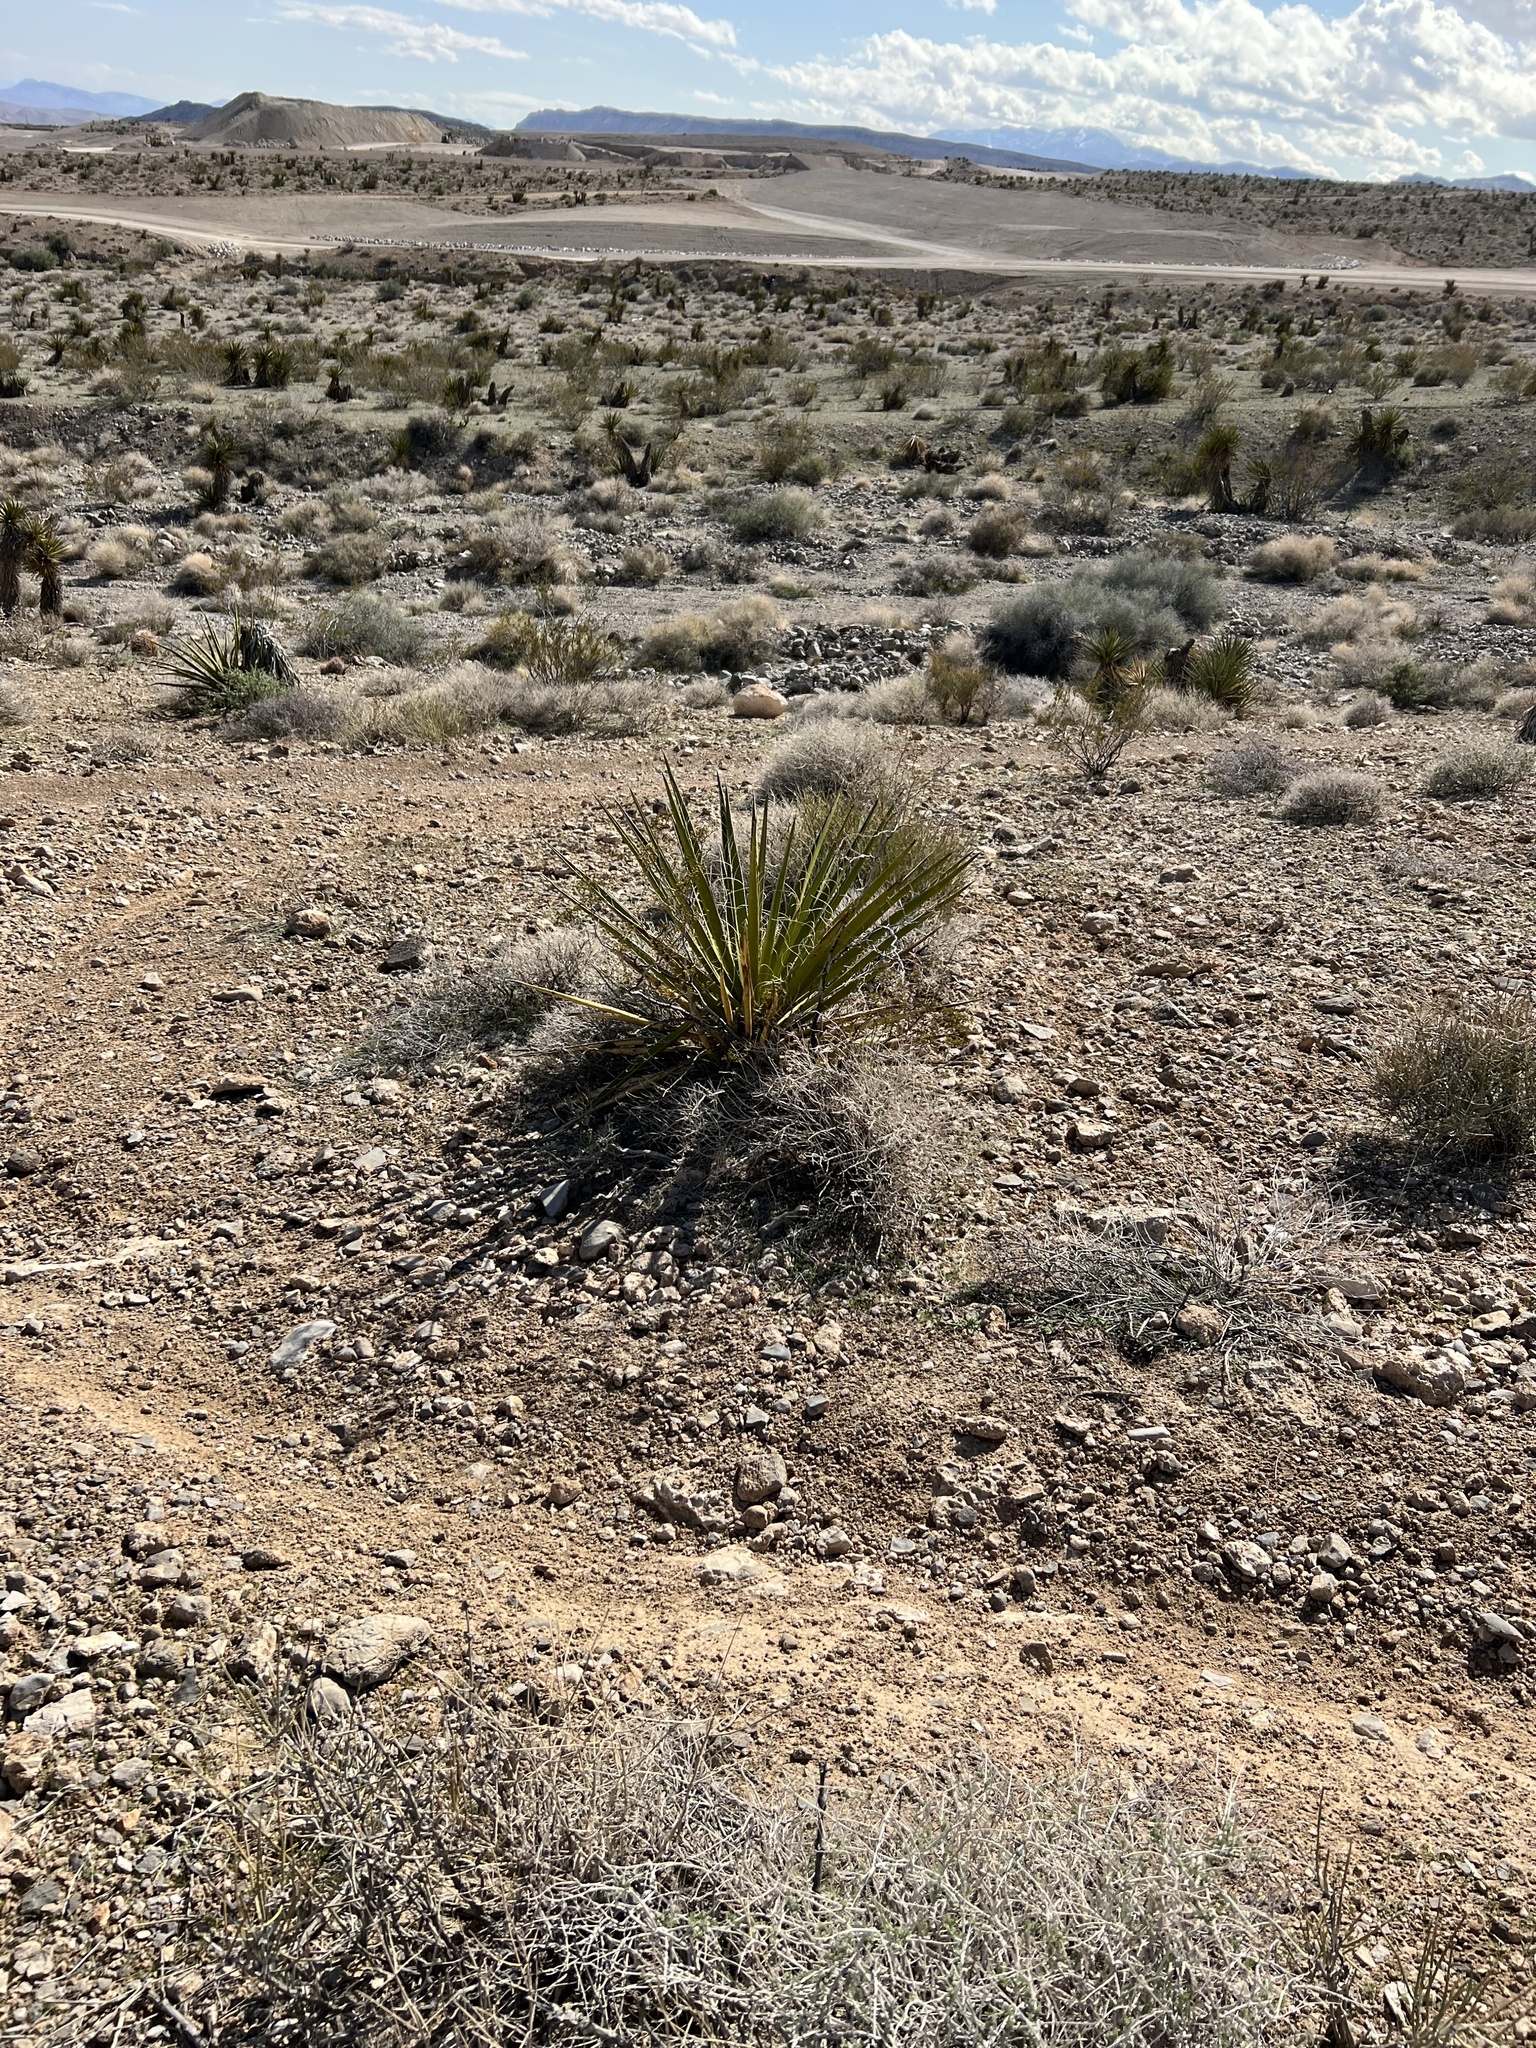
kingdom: Plantae
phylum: Tracheophyta
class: Liliopsida
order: Asparagales
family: Asparagaceae
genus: Yucca
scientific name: Yucca schidigera
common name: Mojave yucca
